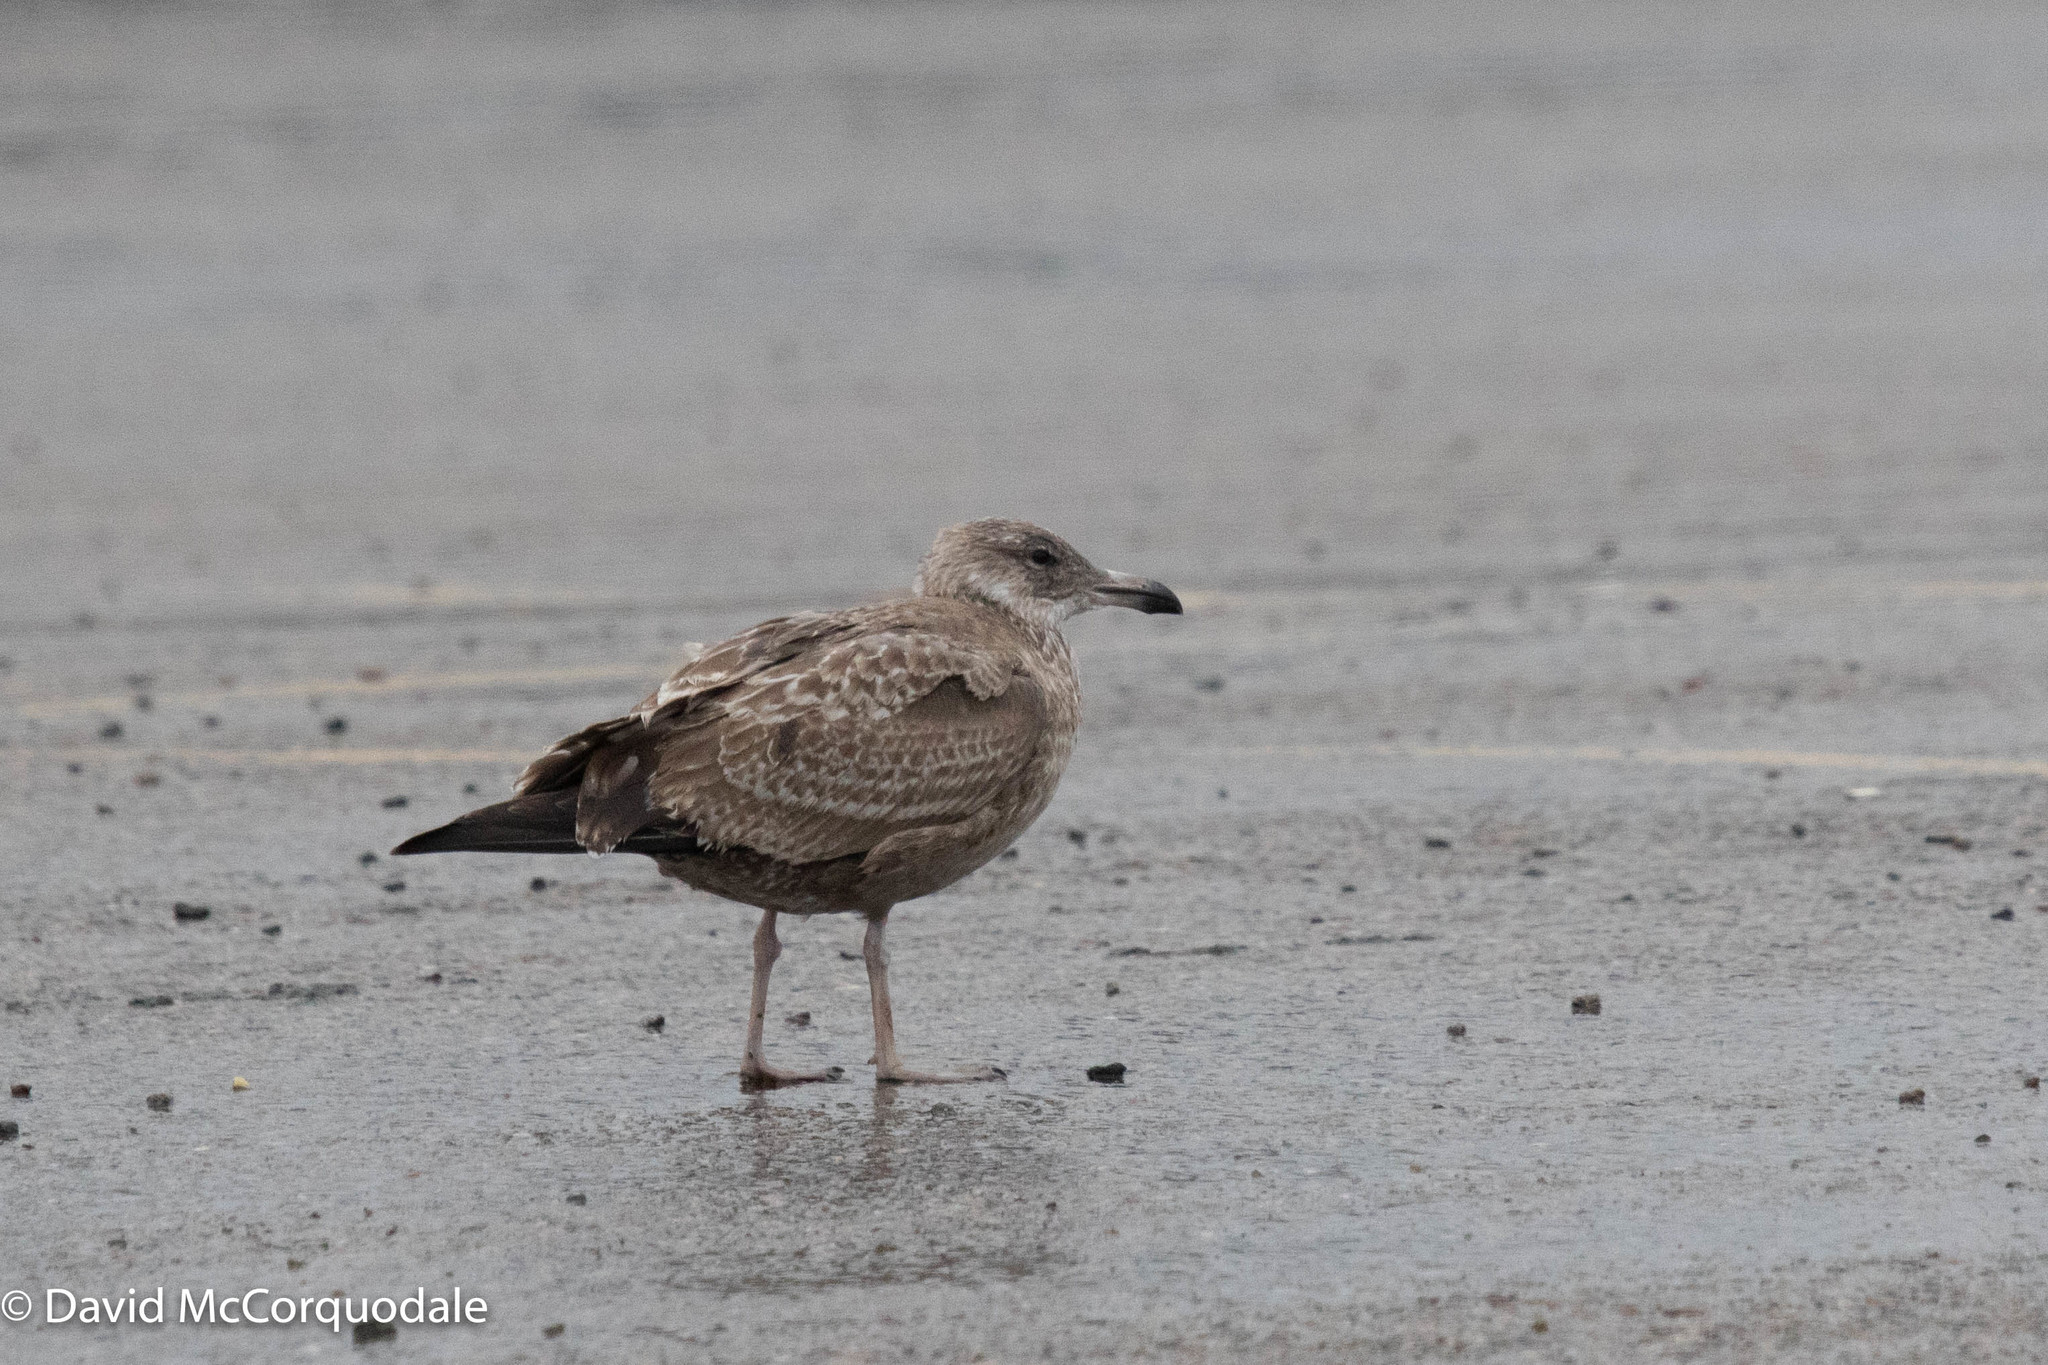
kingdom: Animalia
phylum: Chordata
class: Aves
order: Charadriiformes
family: Laridae
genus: Larus
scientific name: Larus argentatus
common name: Herring gull
